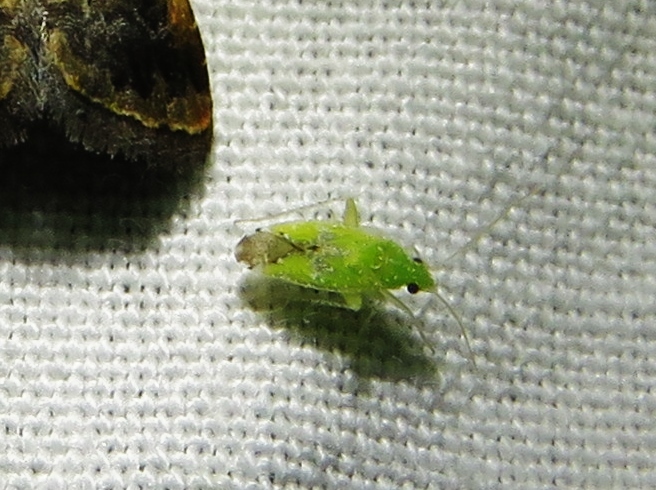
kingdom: Animalia
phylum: Arthropoda
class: Insecta
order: Hemiptera
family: Miridae
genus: Keltonia
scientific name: Keltonia tuckeri
